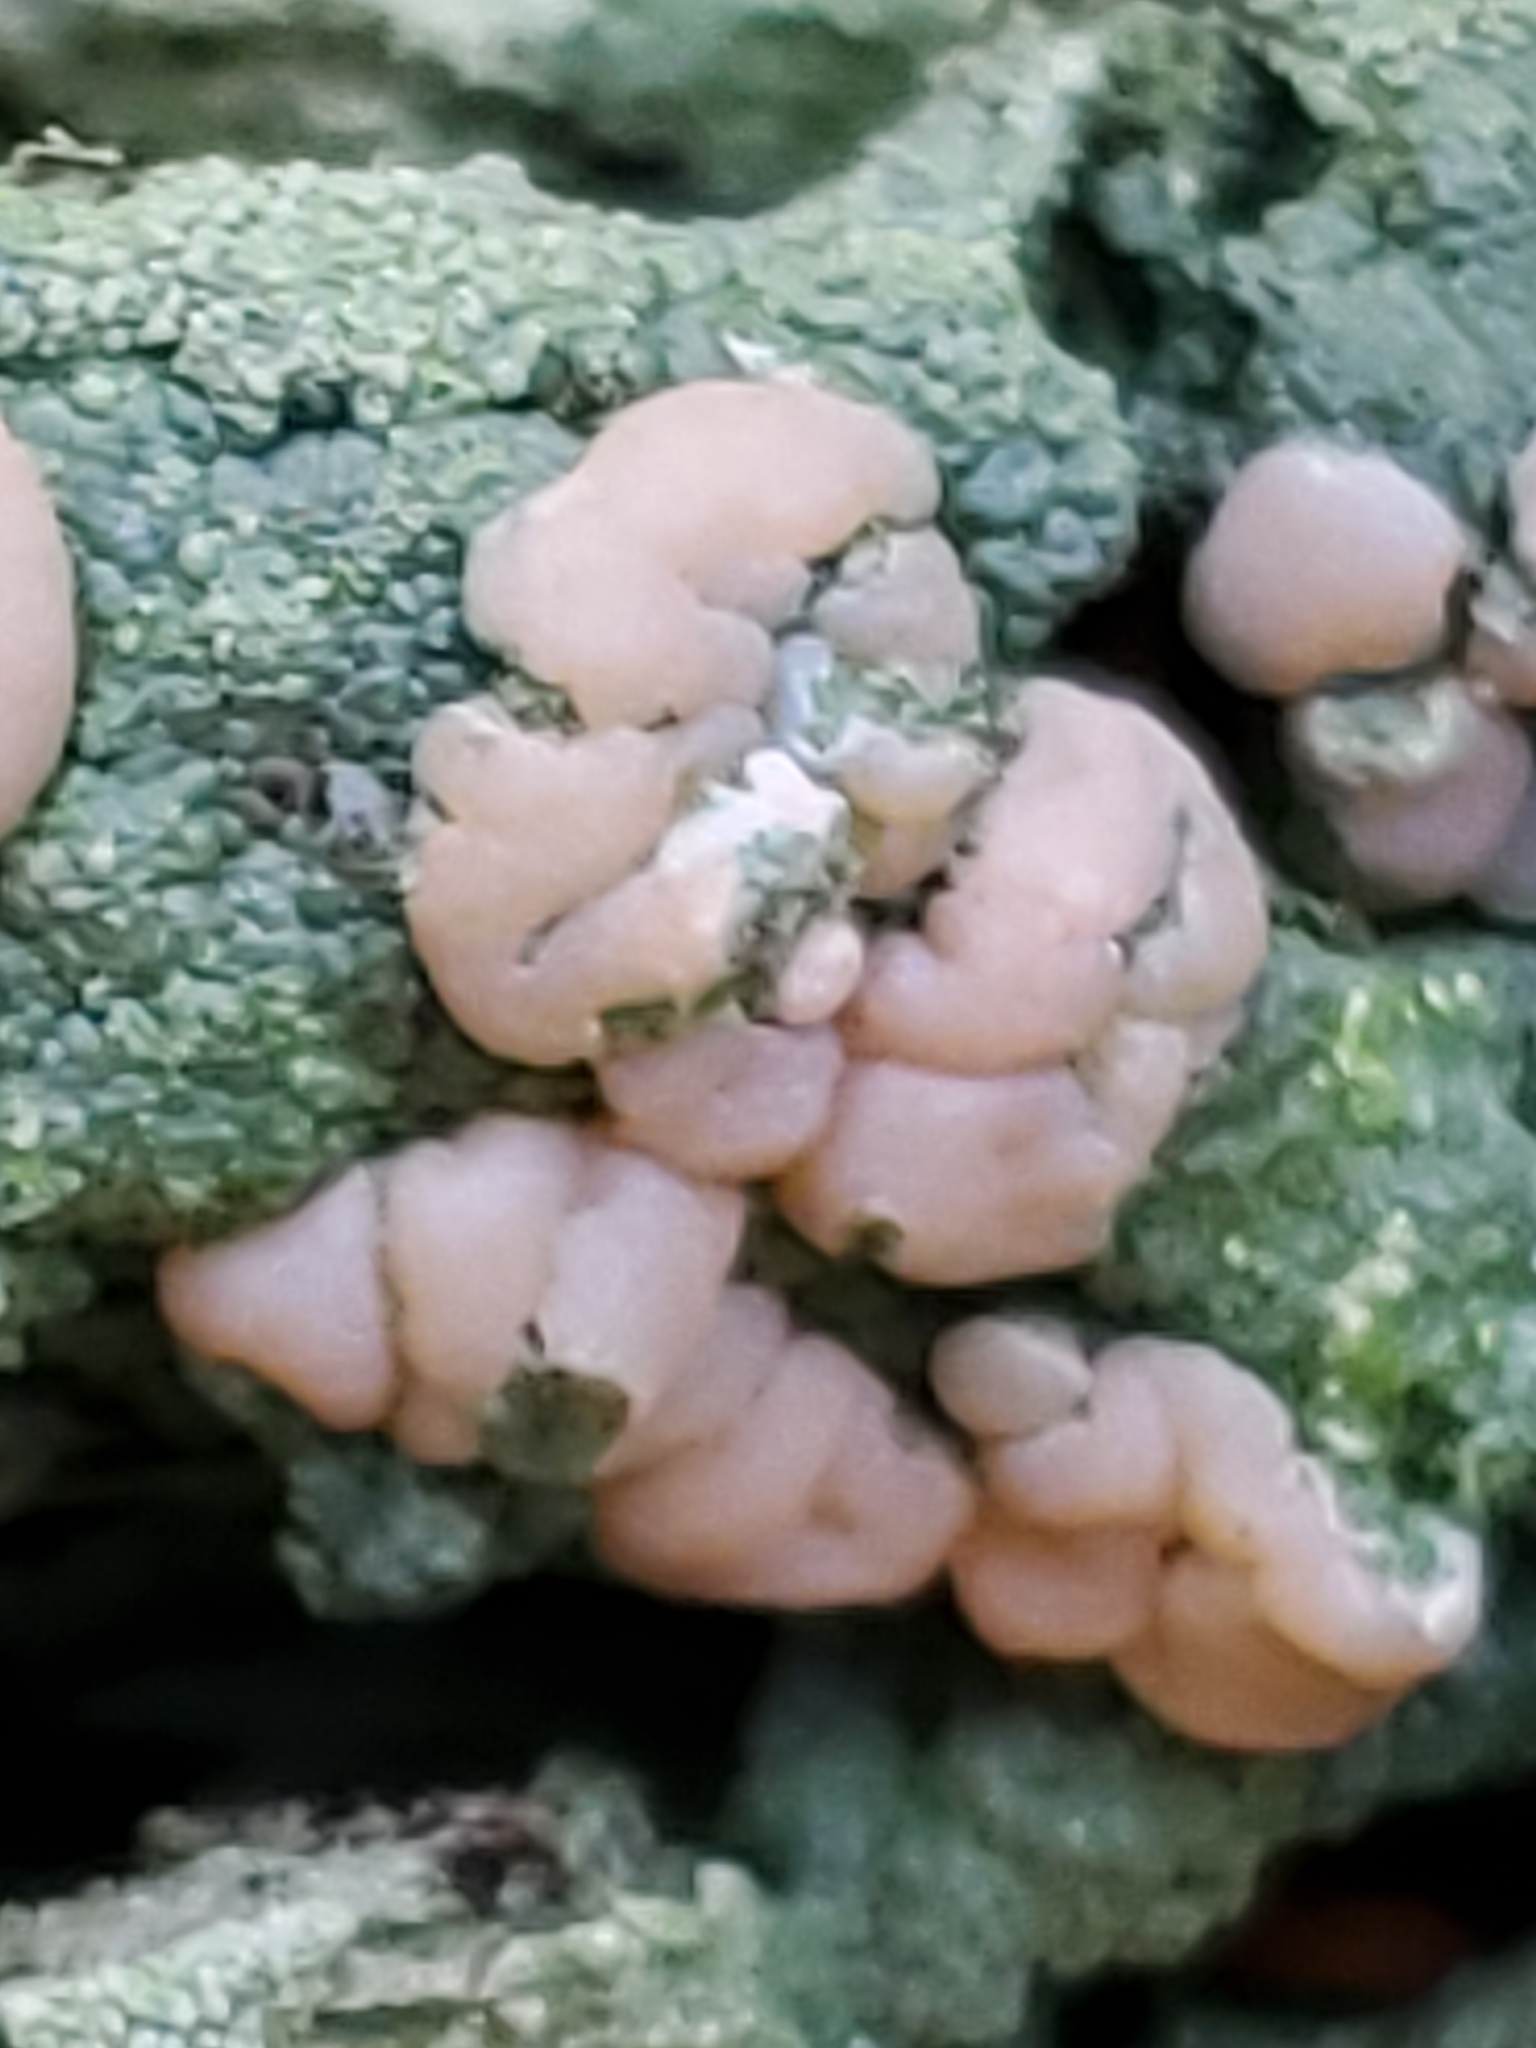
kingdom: Fungi
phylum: Ascomycota
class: Lecanoromycetes
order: Pertusariales
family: Icmadophilaceae
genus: Icmadophila
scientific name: Icmadophila ericetorum
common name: Candy lichen
